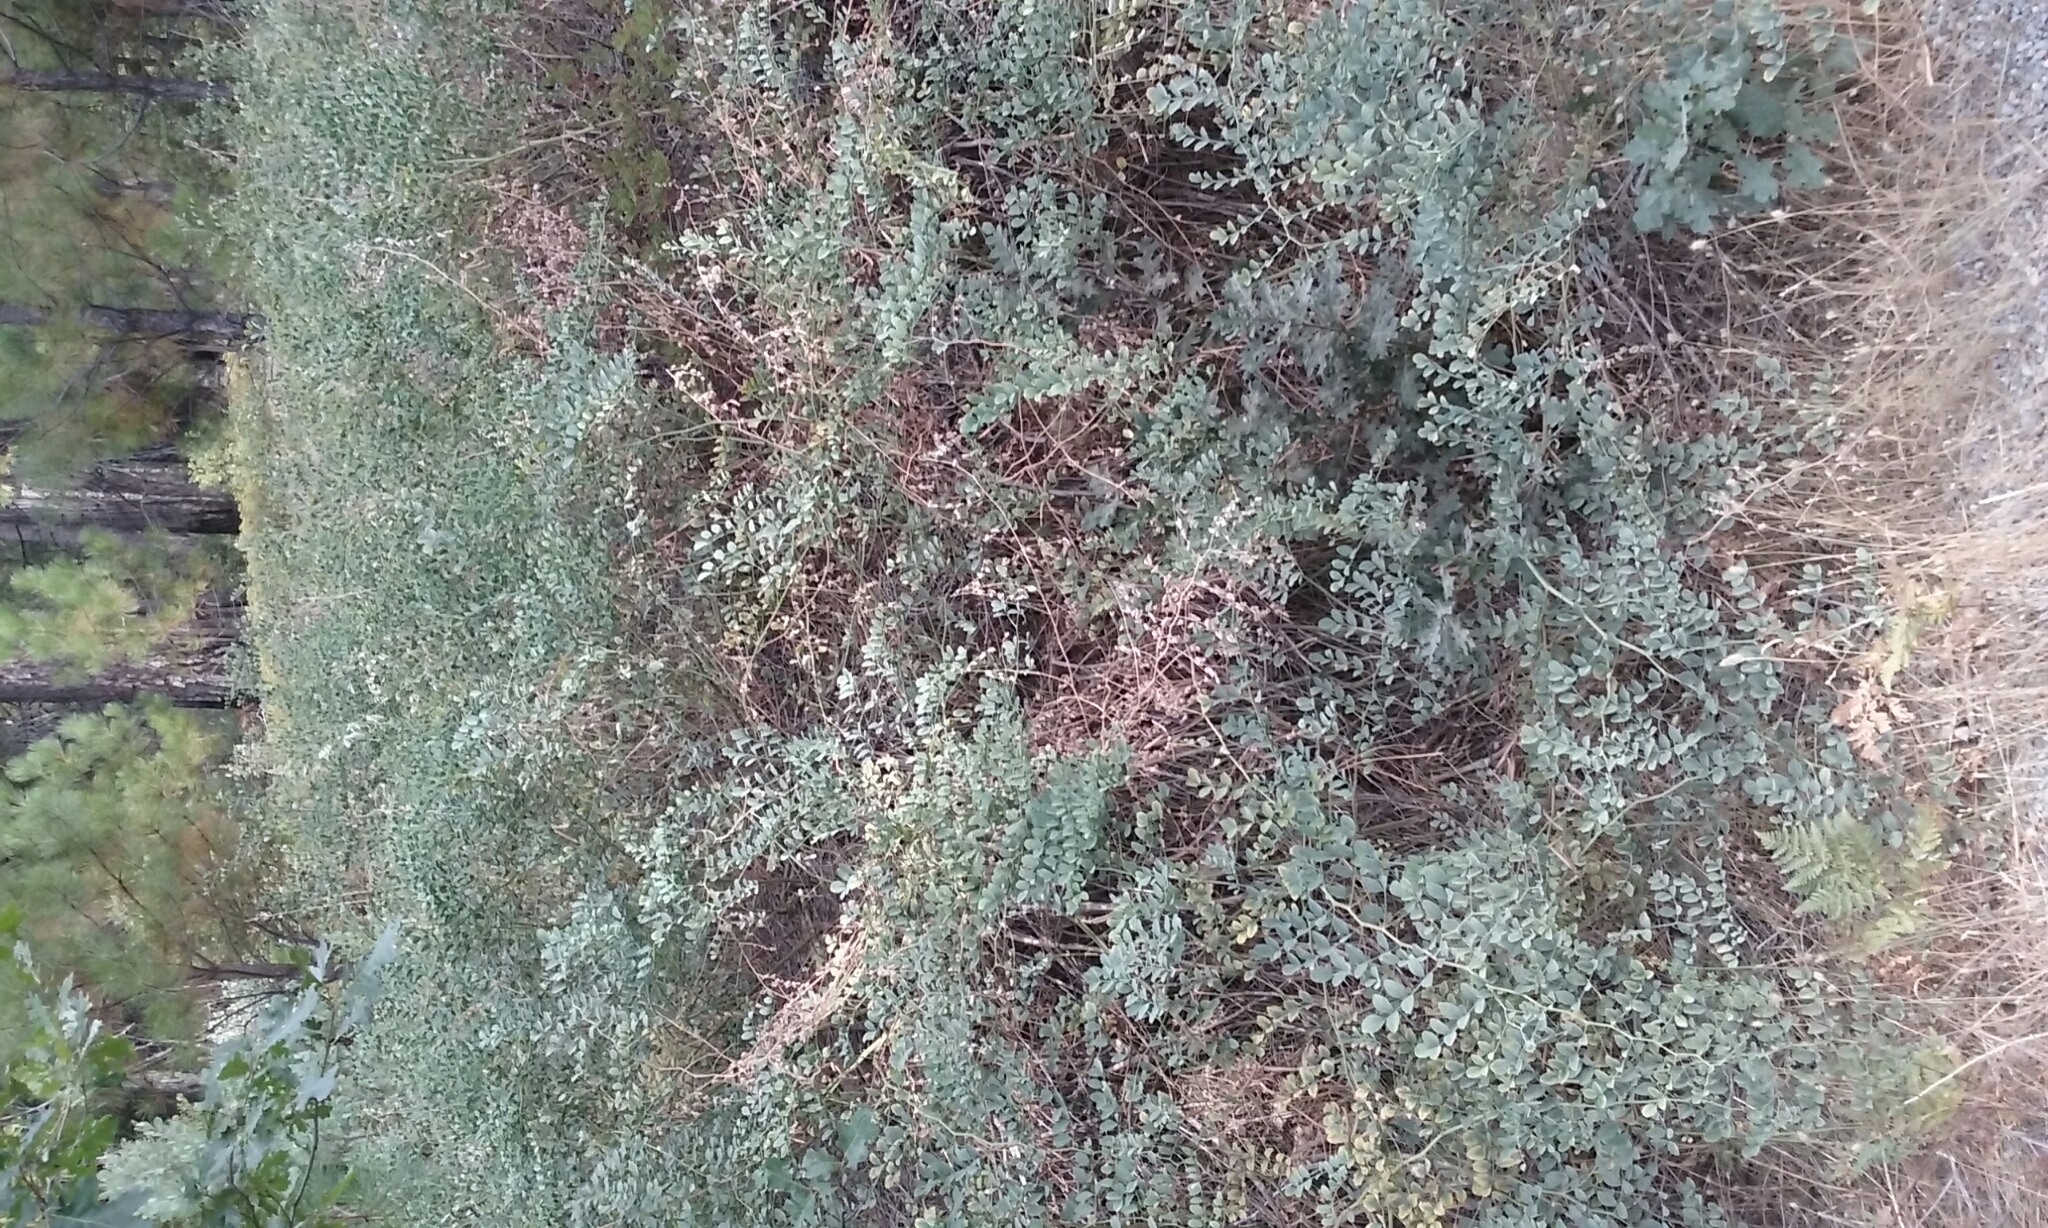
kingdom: Plantae
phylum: Tracheophyta
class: Magnoliopsida
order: Fabales
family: Fabaceae
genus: Hosackia
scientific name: Hosackia crassifolia
